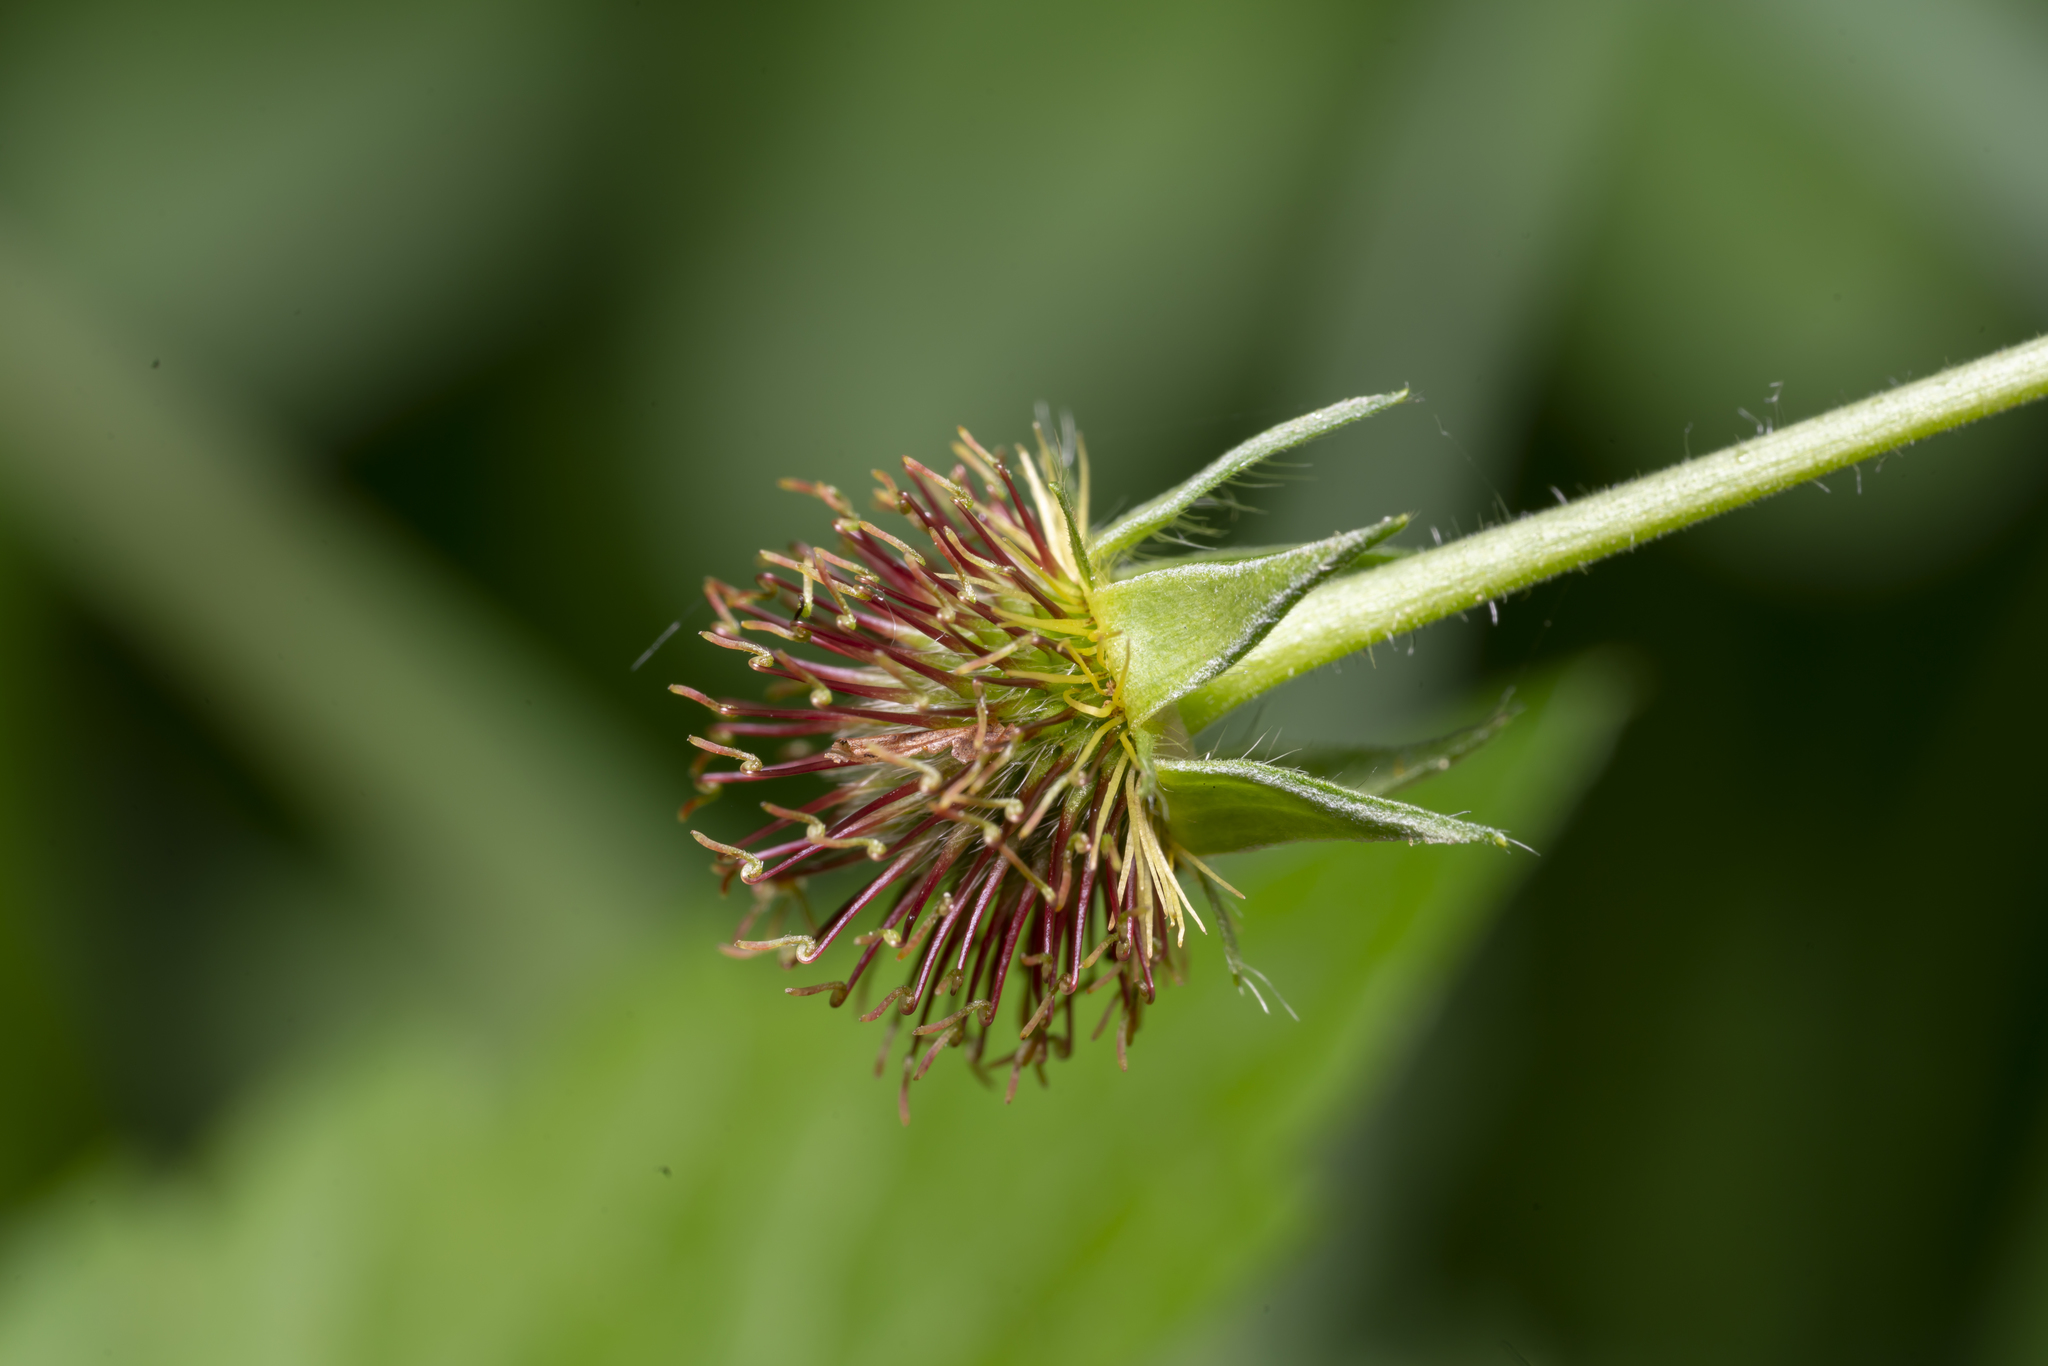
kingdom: Plantae
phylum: Tracheophyta
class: Magnoliopsida
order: Rosales
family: Rosaceae
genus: Geum
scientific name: Geum urbanum
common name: Wood avens
